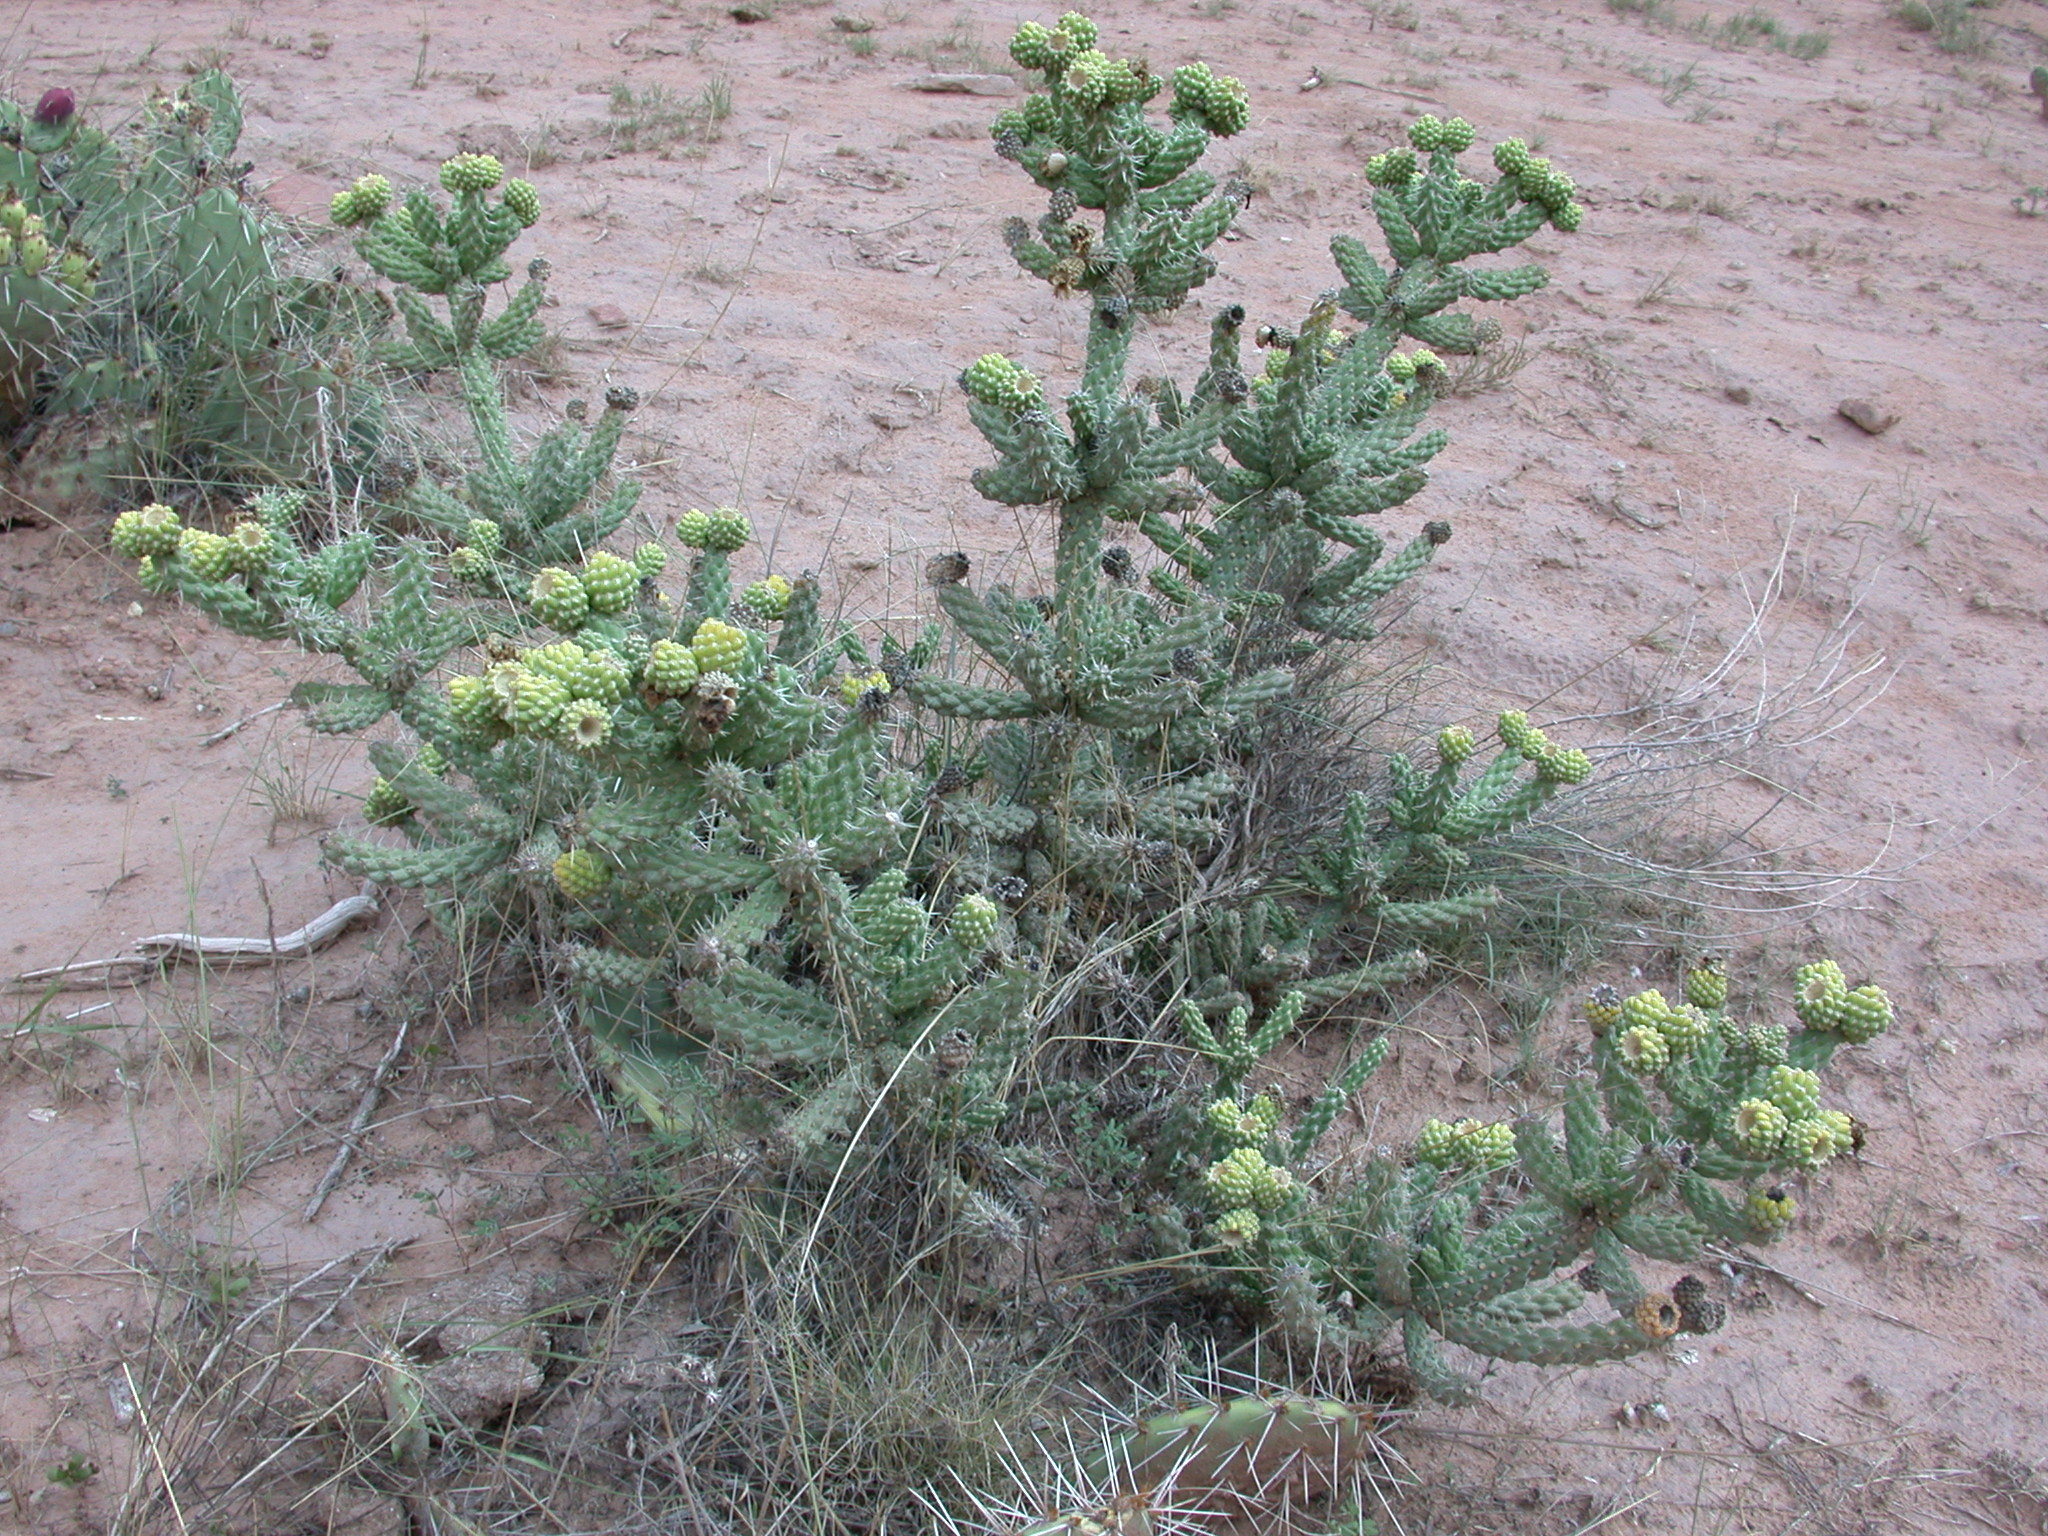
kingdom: Plantae
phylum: Tracheophyta
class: Magnoliopsida
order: Caryophyllales
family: Cactaceae
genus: Cylindropuntia
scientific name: Cylindropuntia whipplei
